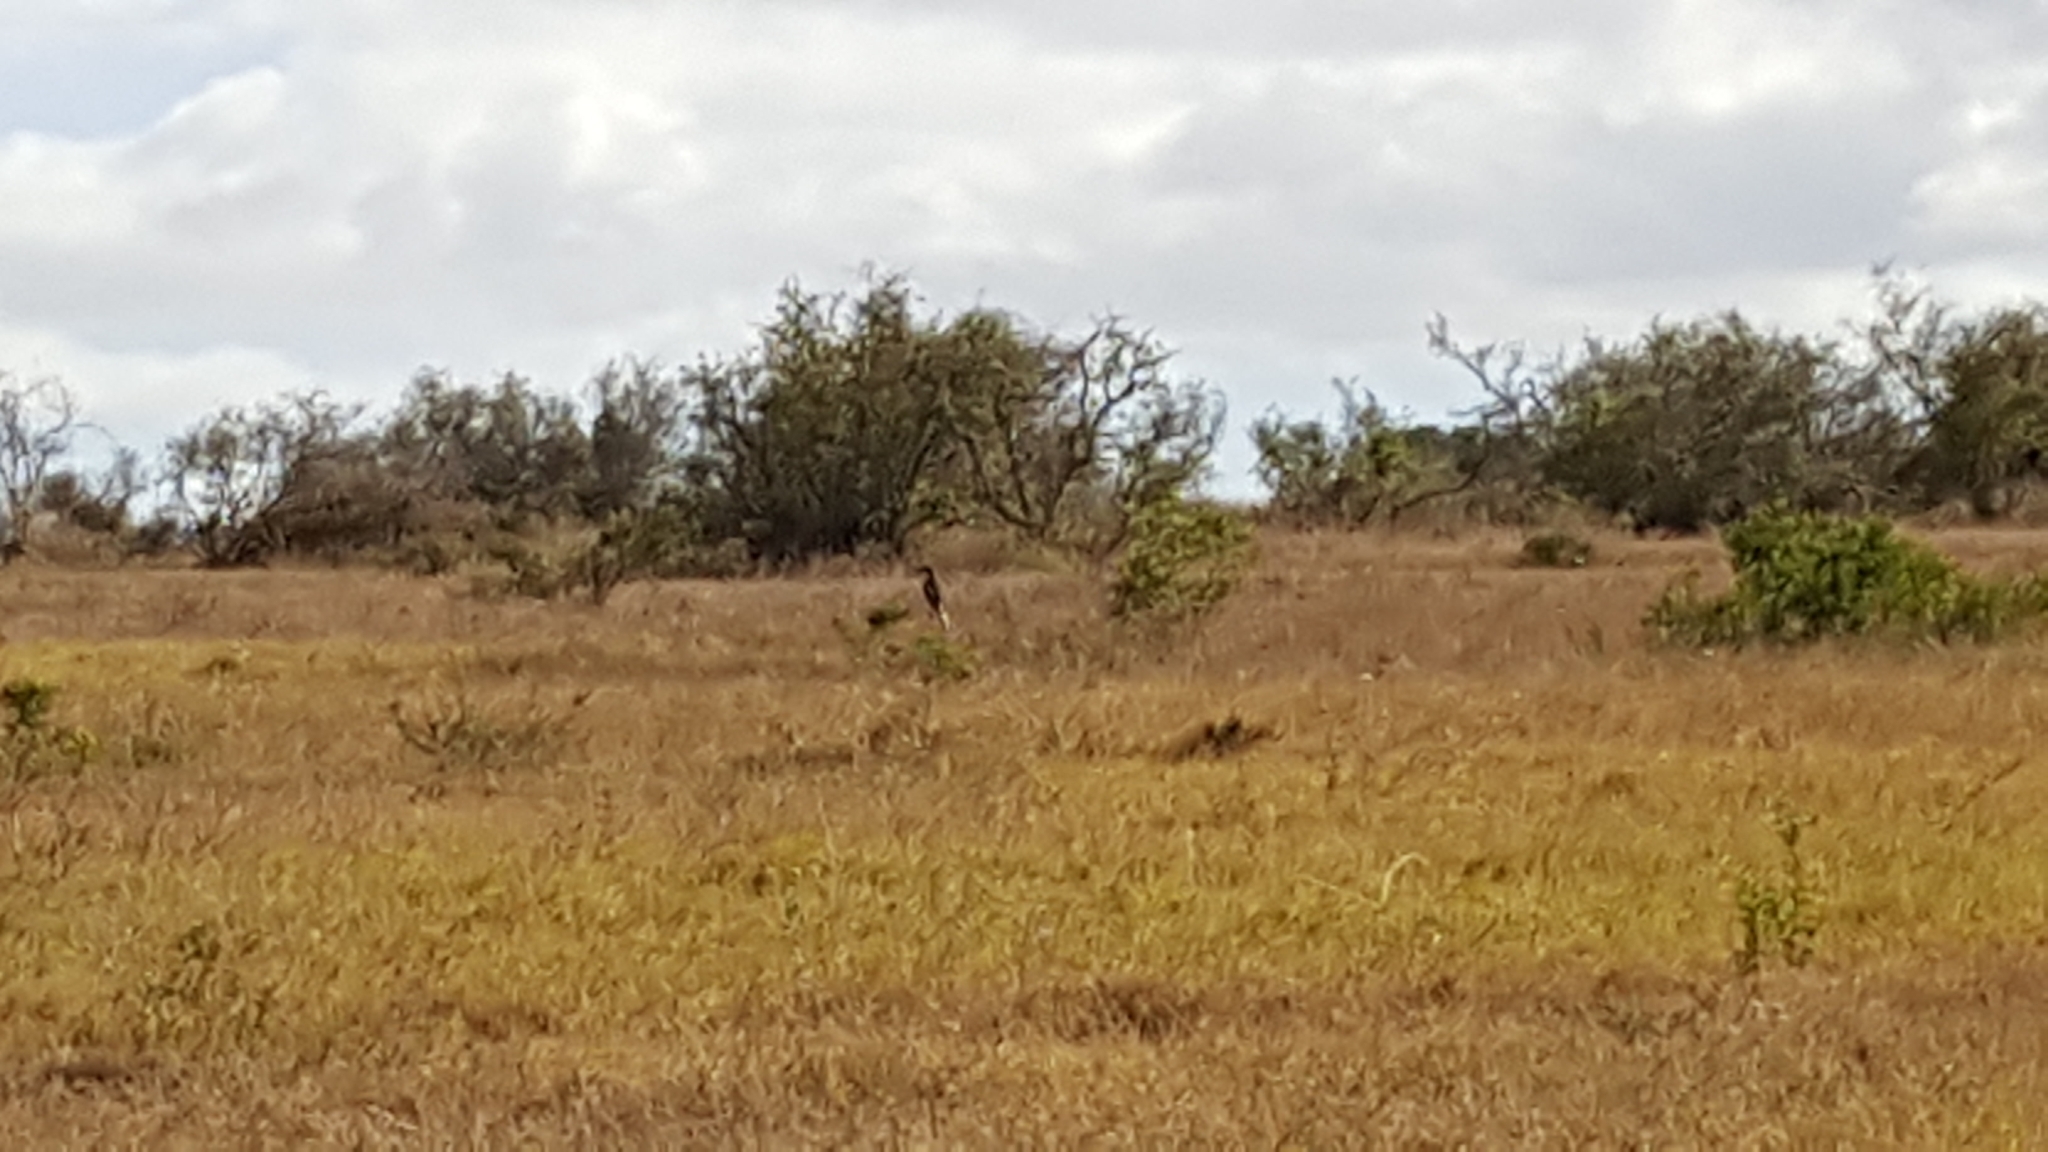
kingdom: Animalia
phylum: Chordata
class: Aves
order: Passeriformes
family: Laniidae
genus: Lanius
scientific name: Lanius collaris
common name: Southern fiscal
